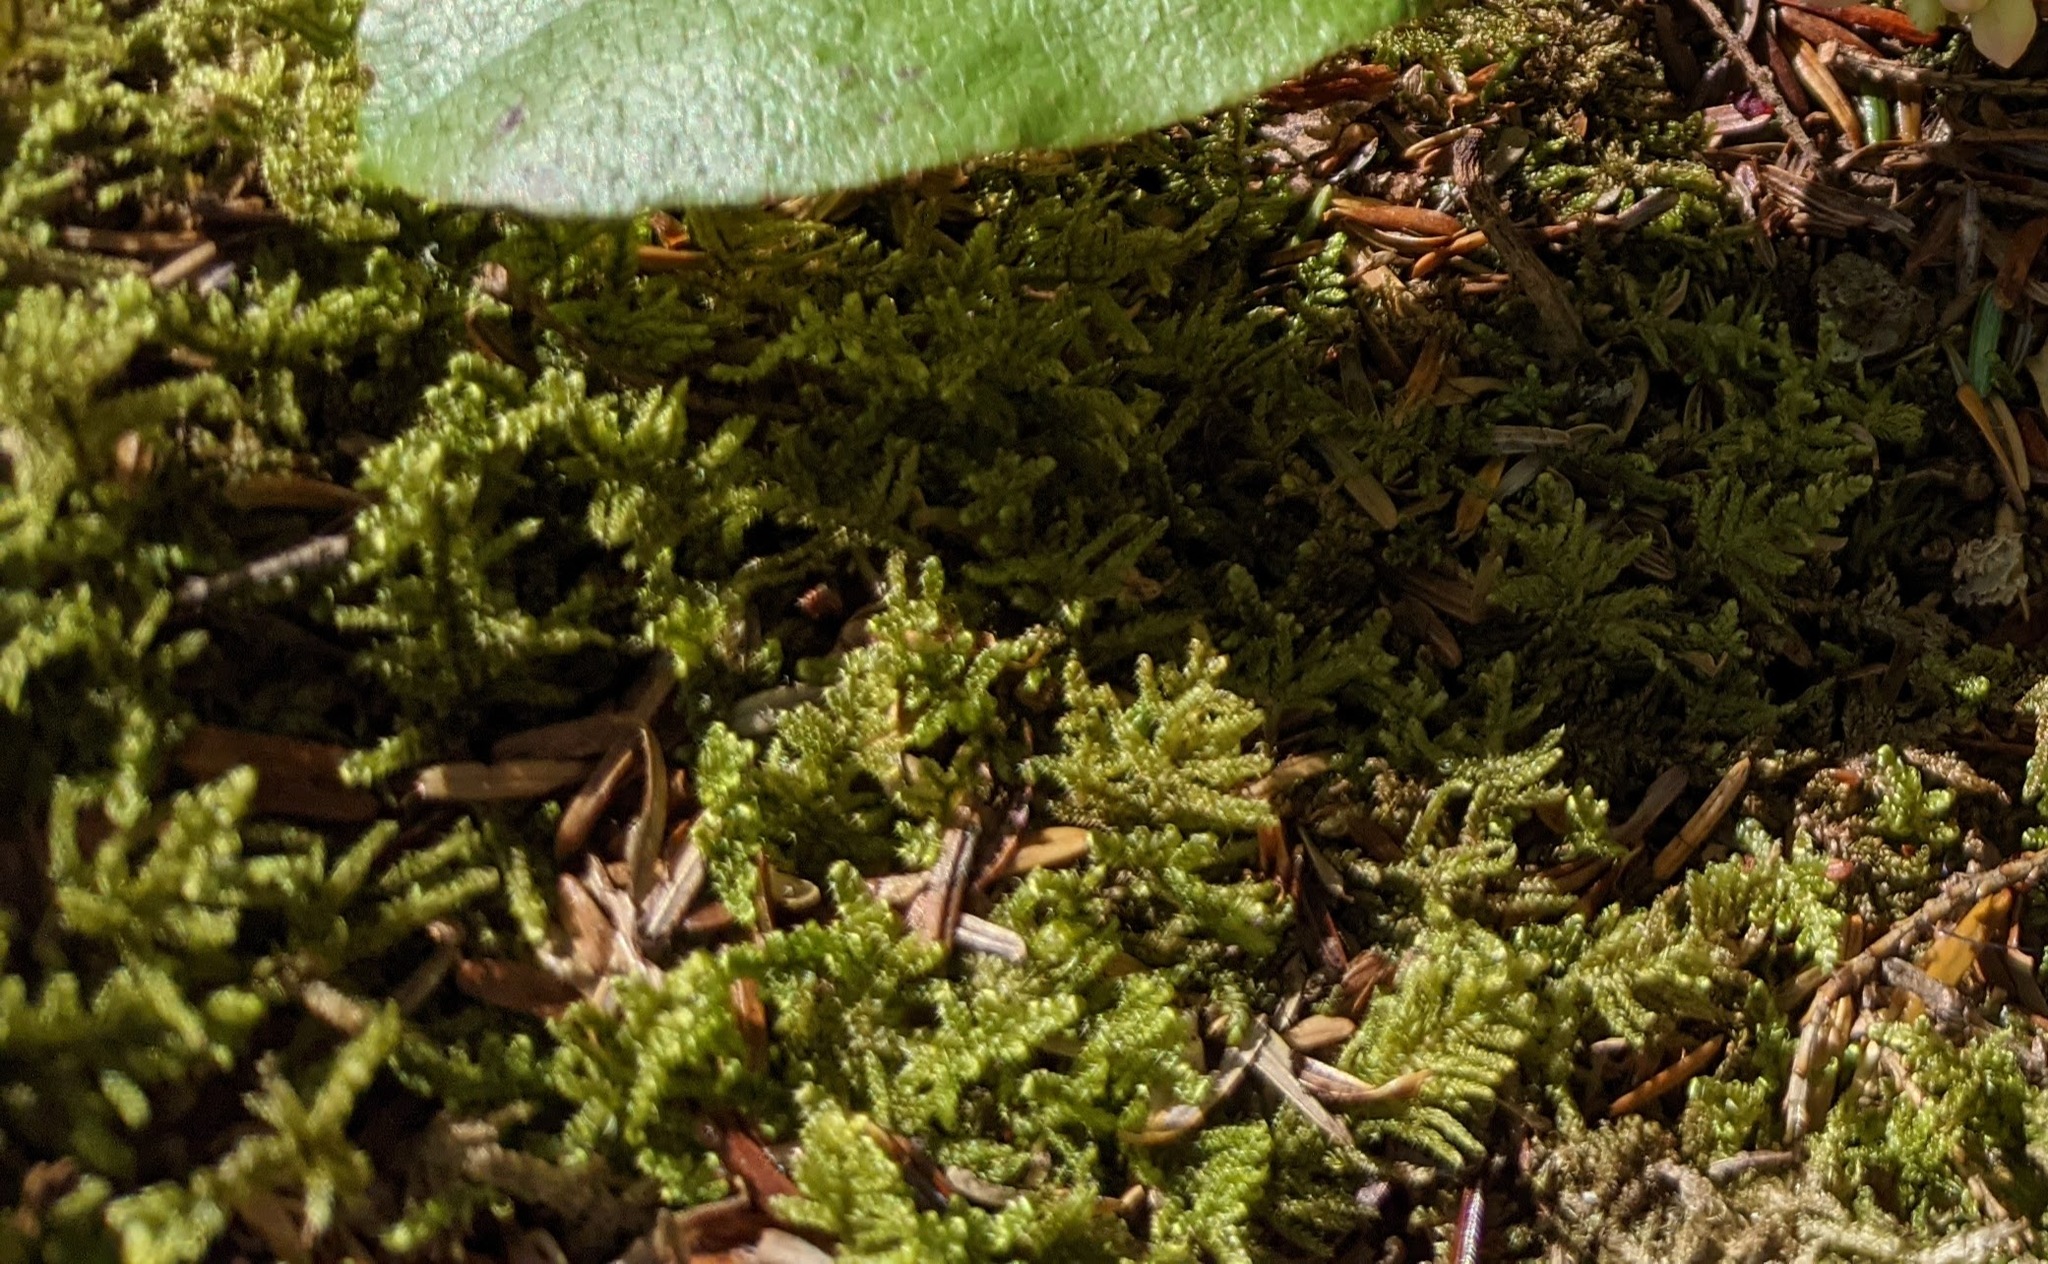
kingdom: Plantae
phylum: Bryophyta
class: Bryopsida
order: Hypnales
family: Callicladiaceae
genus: Callicladium
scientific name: Callicladium imponens
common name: Brocade moss
